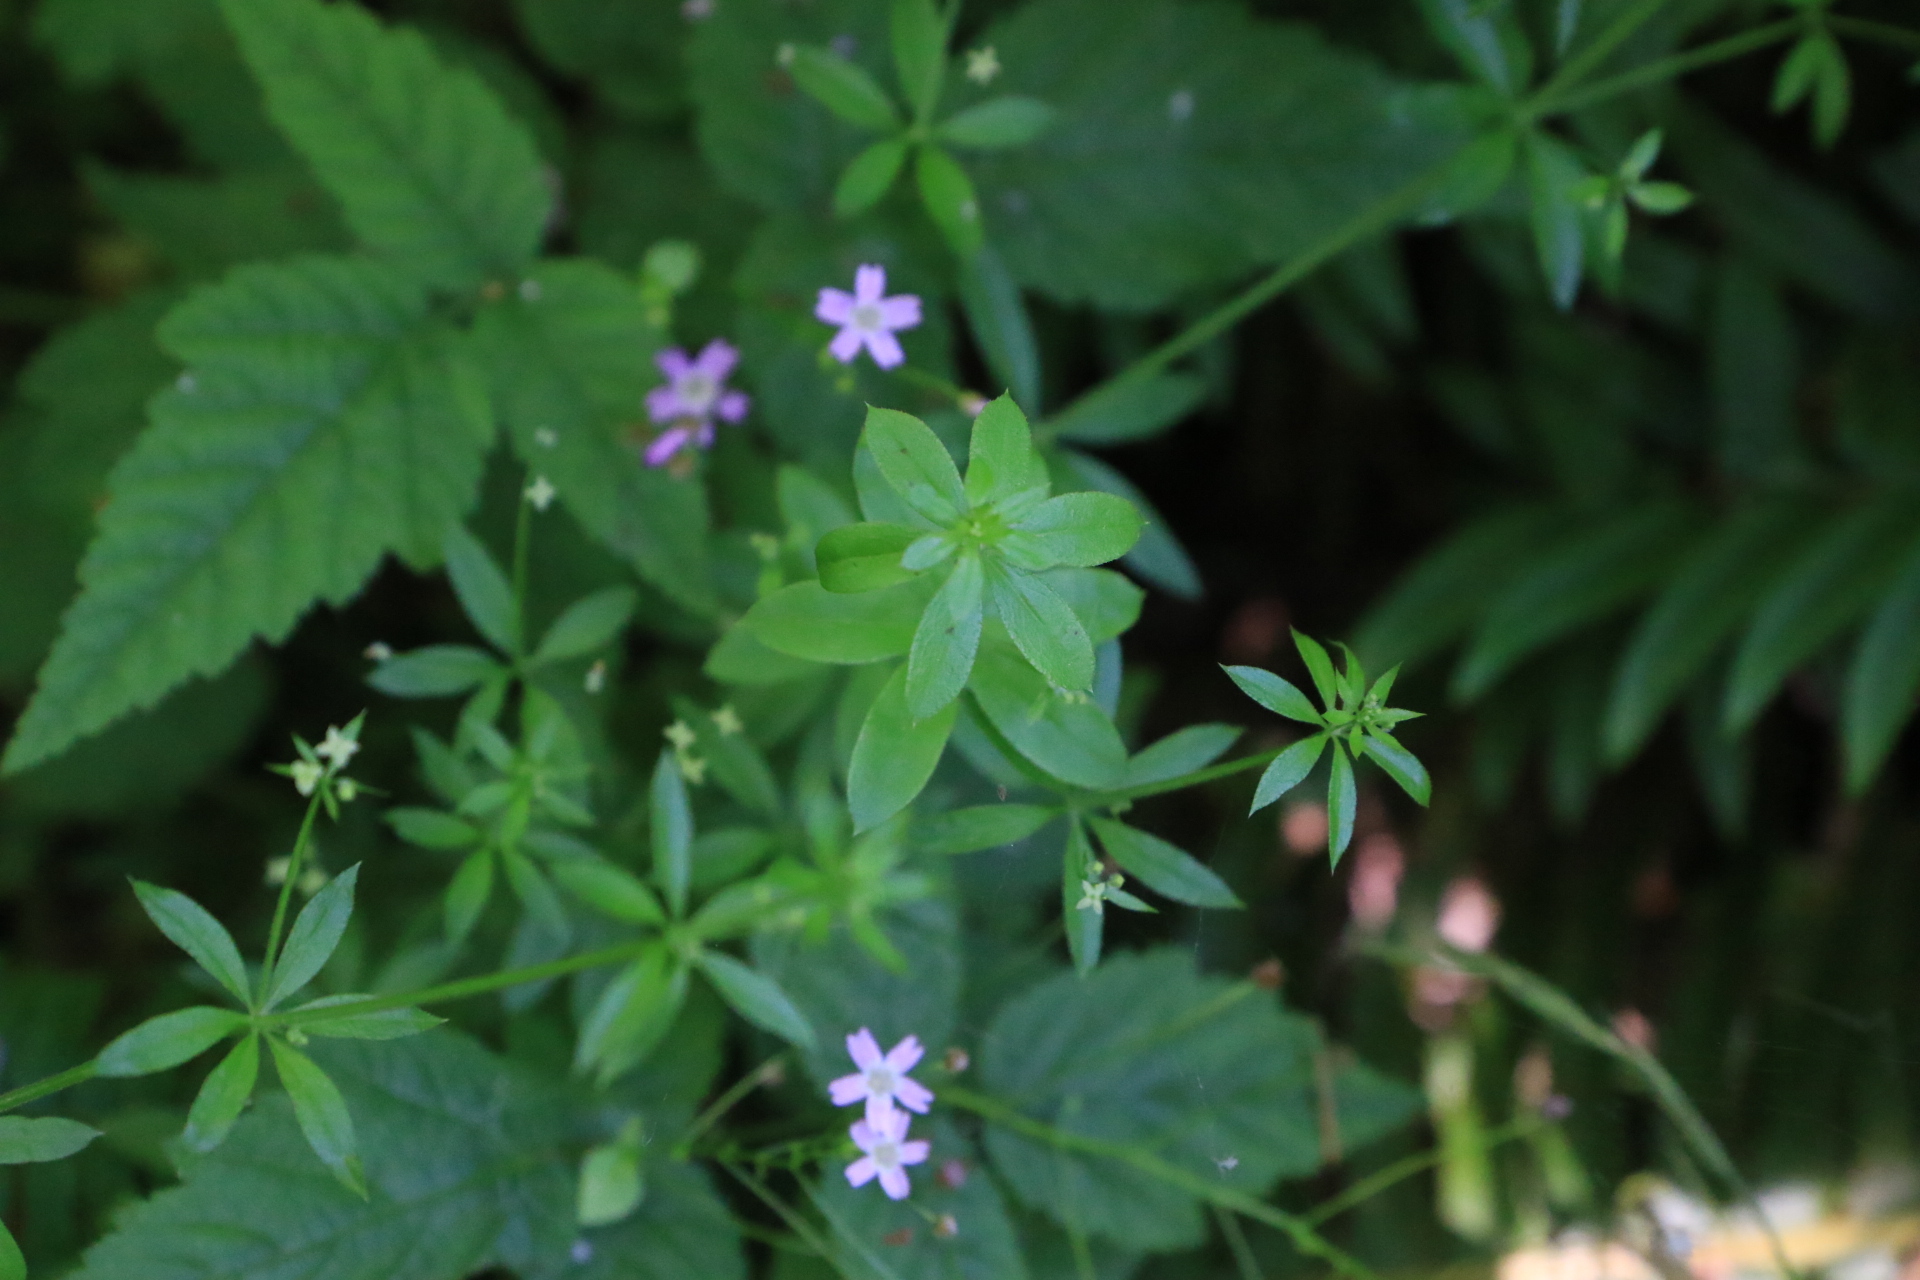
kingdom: Plantae
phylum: Tracheophyta
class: Magnoliopsida
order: Gentianales
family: Rubiaceae
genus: Galium
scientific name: Galium triflorum
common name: Fragrant bedstraw
